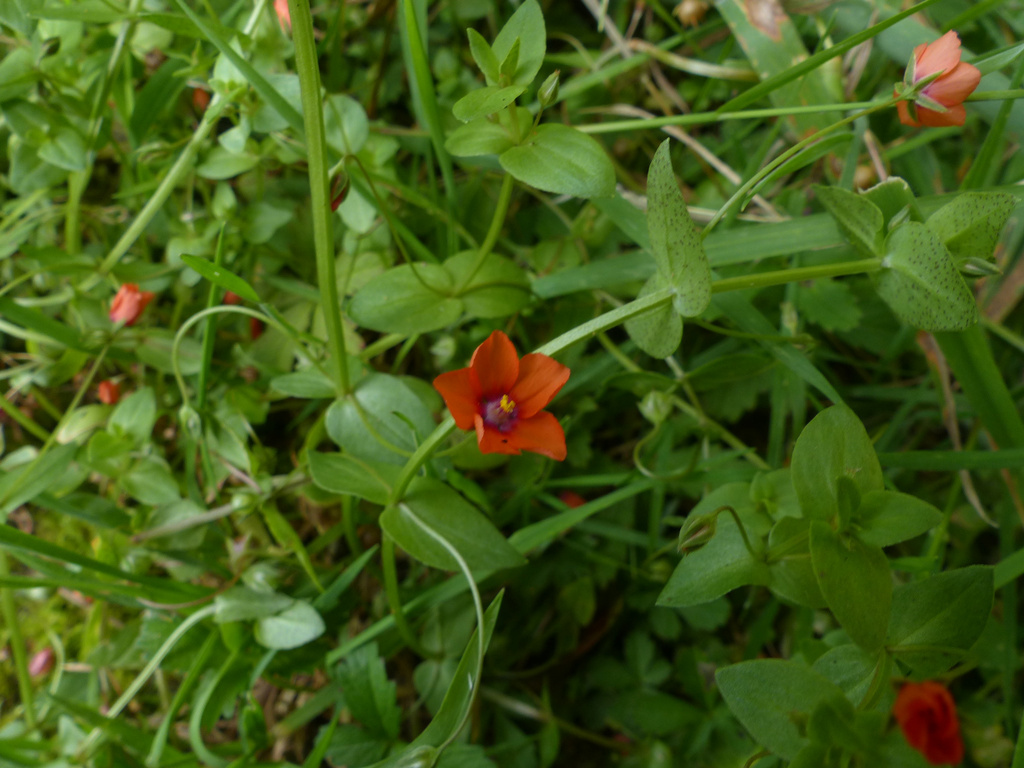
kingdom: Plantae
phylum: Tracheophyta
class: Magnoliopsida
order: Ericales
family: Primulaceae
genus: Lysimachia
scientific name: Lysimachia arvensis
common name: Scarlet pimpernel
